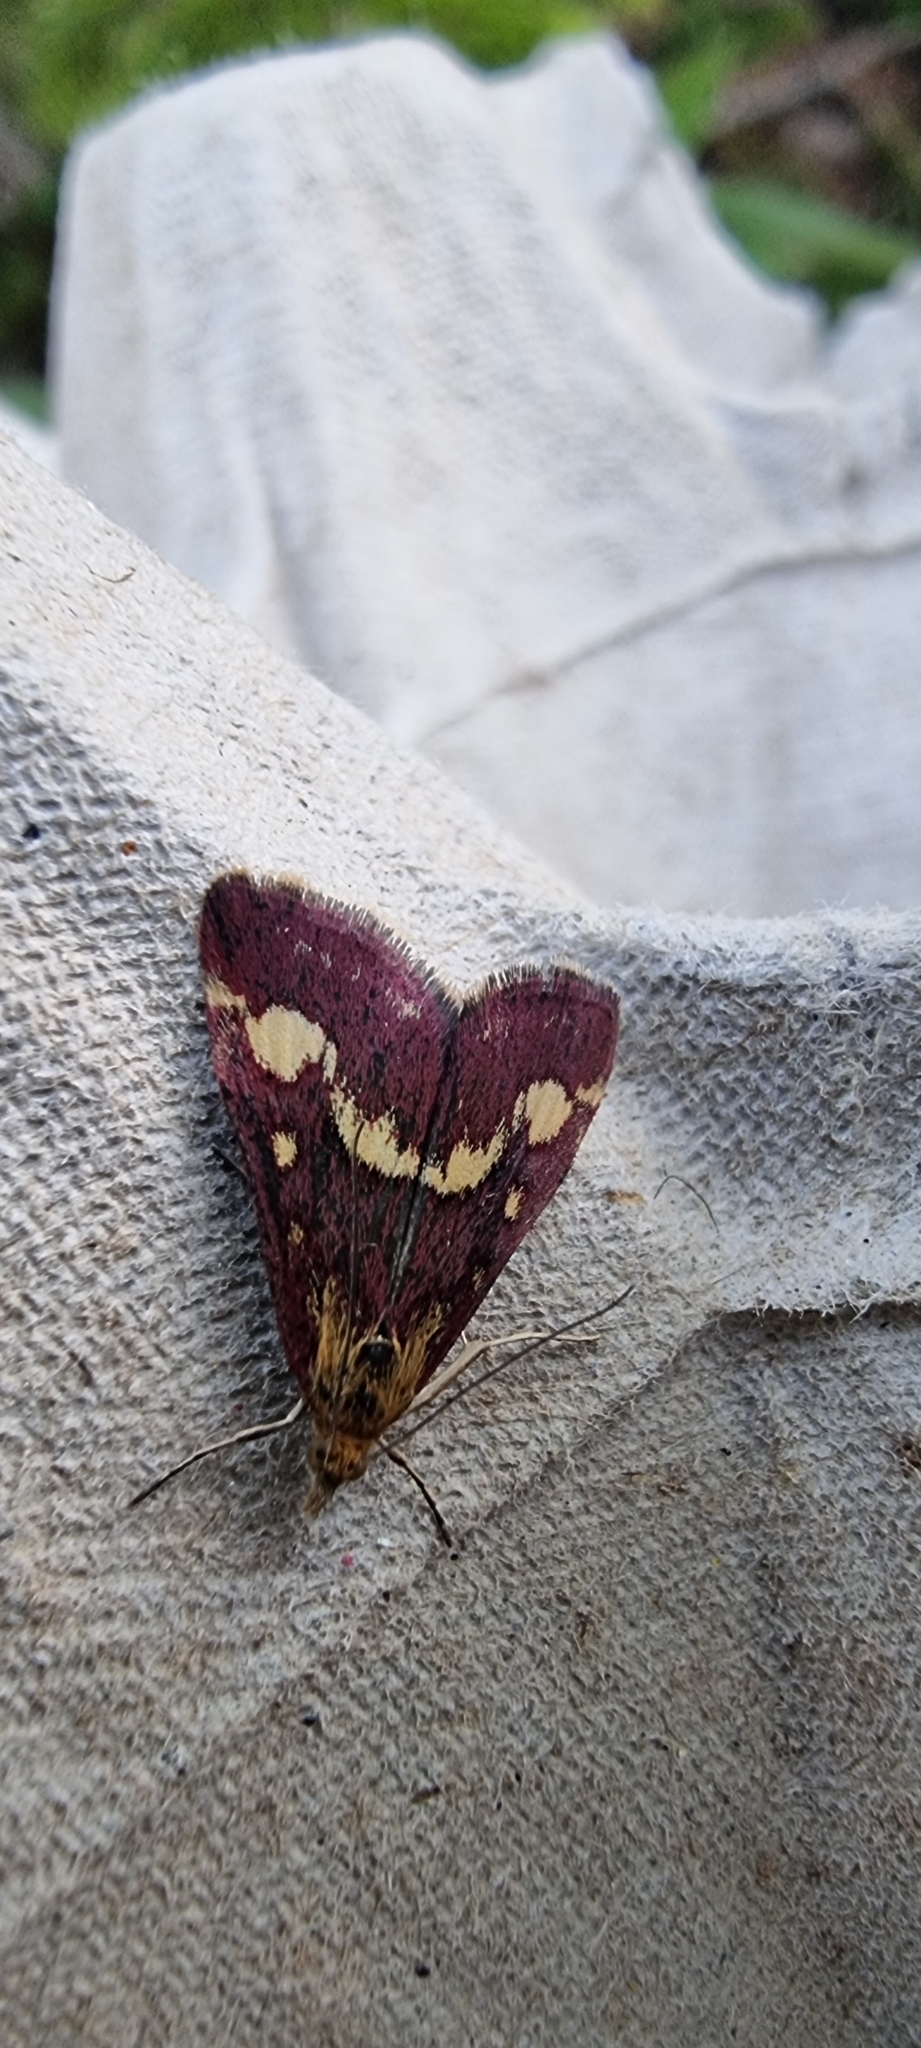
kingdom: Animalia
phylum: Arthropoda
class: Insecta
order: Lepidoptera
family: Crambidae
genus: Pyrausta
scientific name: Pyrausta purpuralis
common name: Common purple & gold
